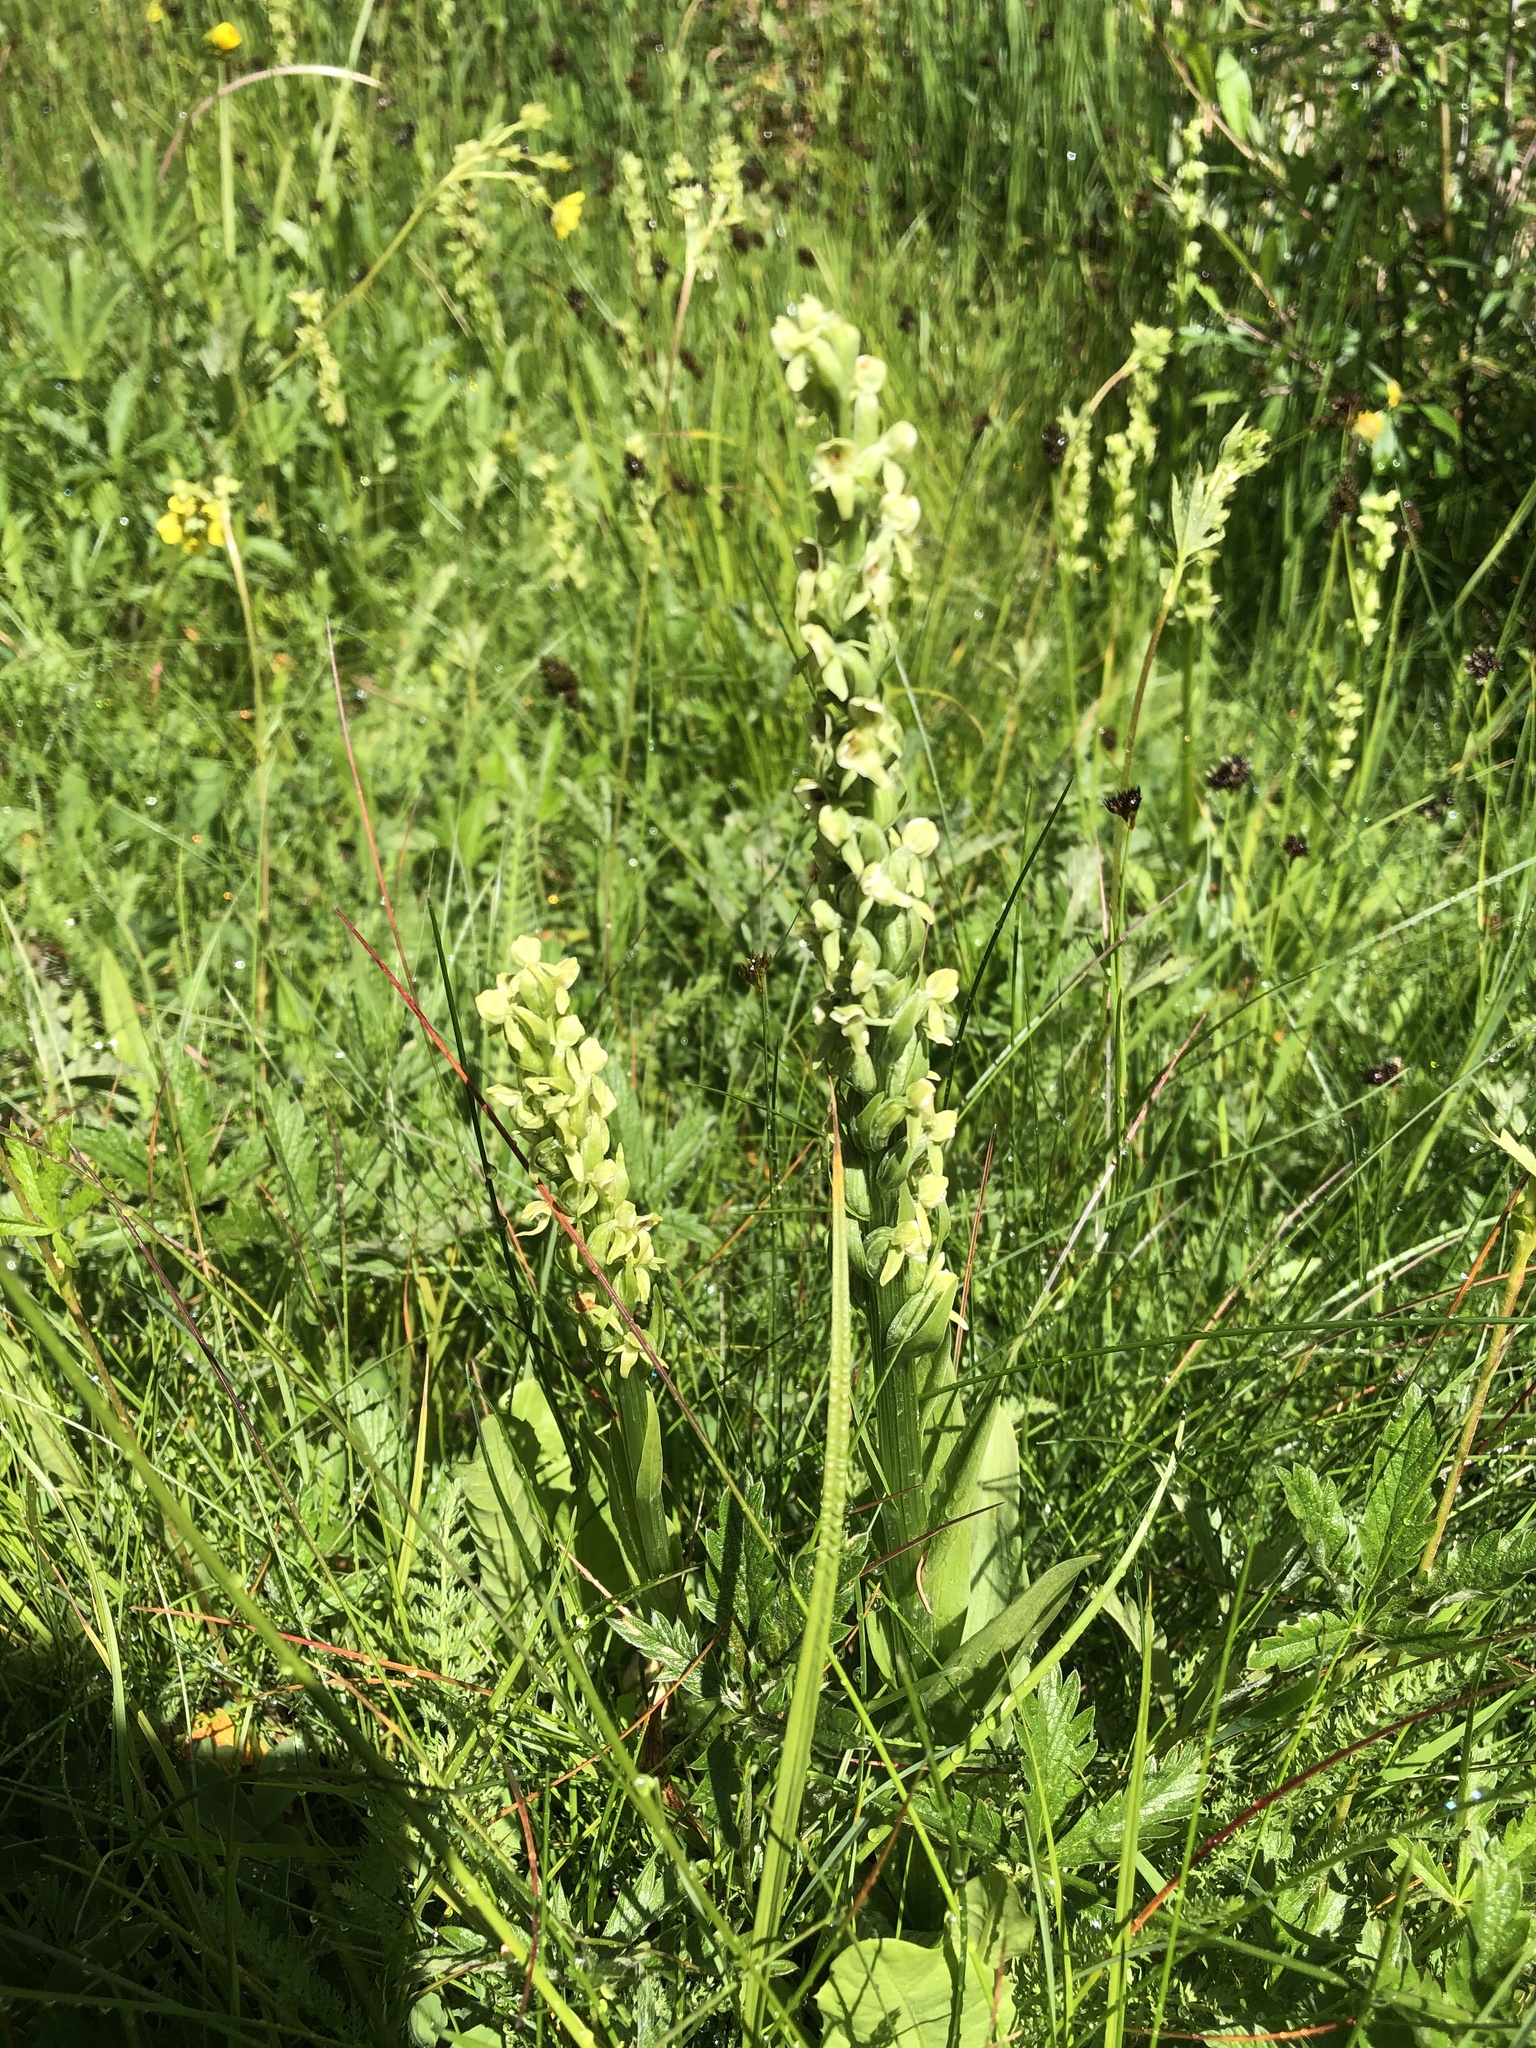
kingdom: Plantae
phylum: Tracheophyta
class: Liliopsida
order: Asparagales
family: Orchidaceae
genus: Platanthera
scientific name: Platanthera huronensis
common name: Fragrant green orchid
